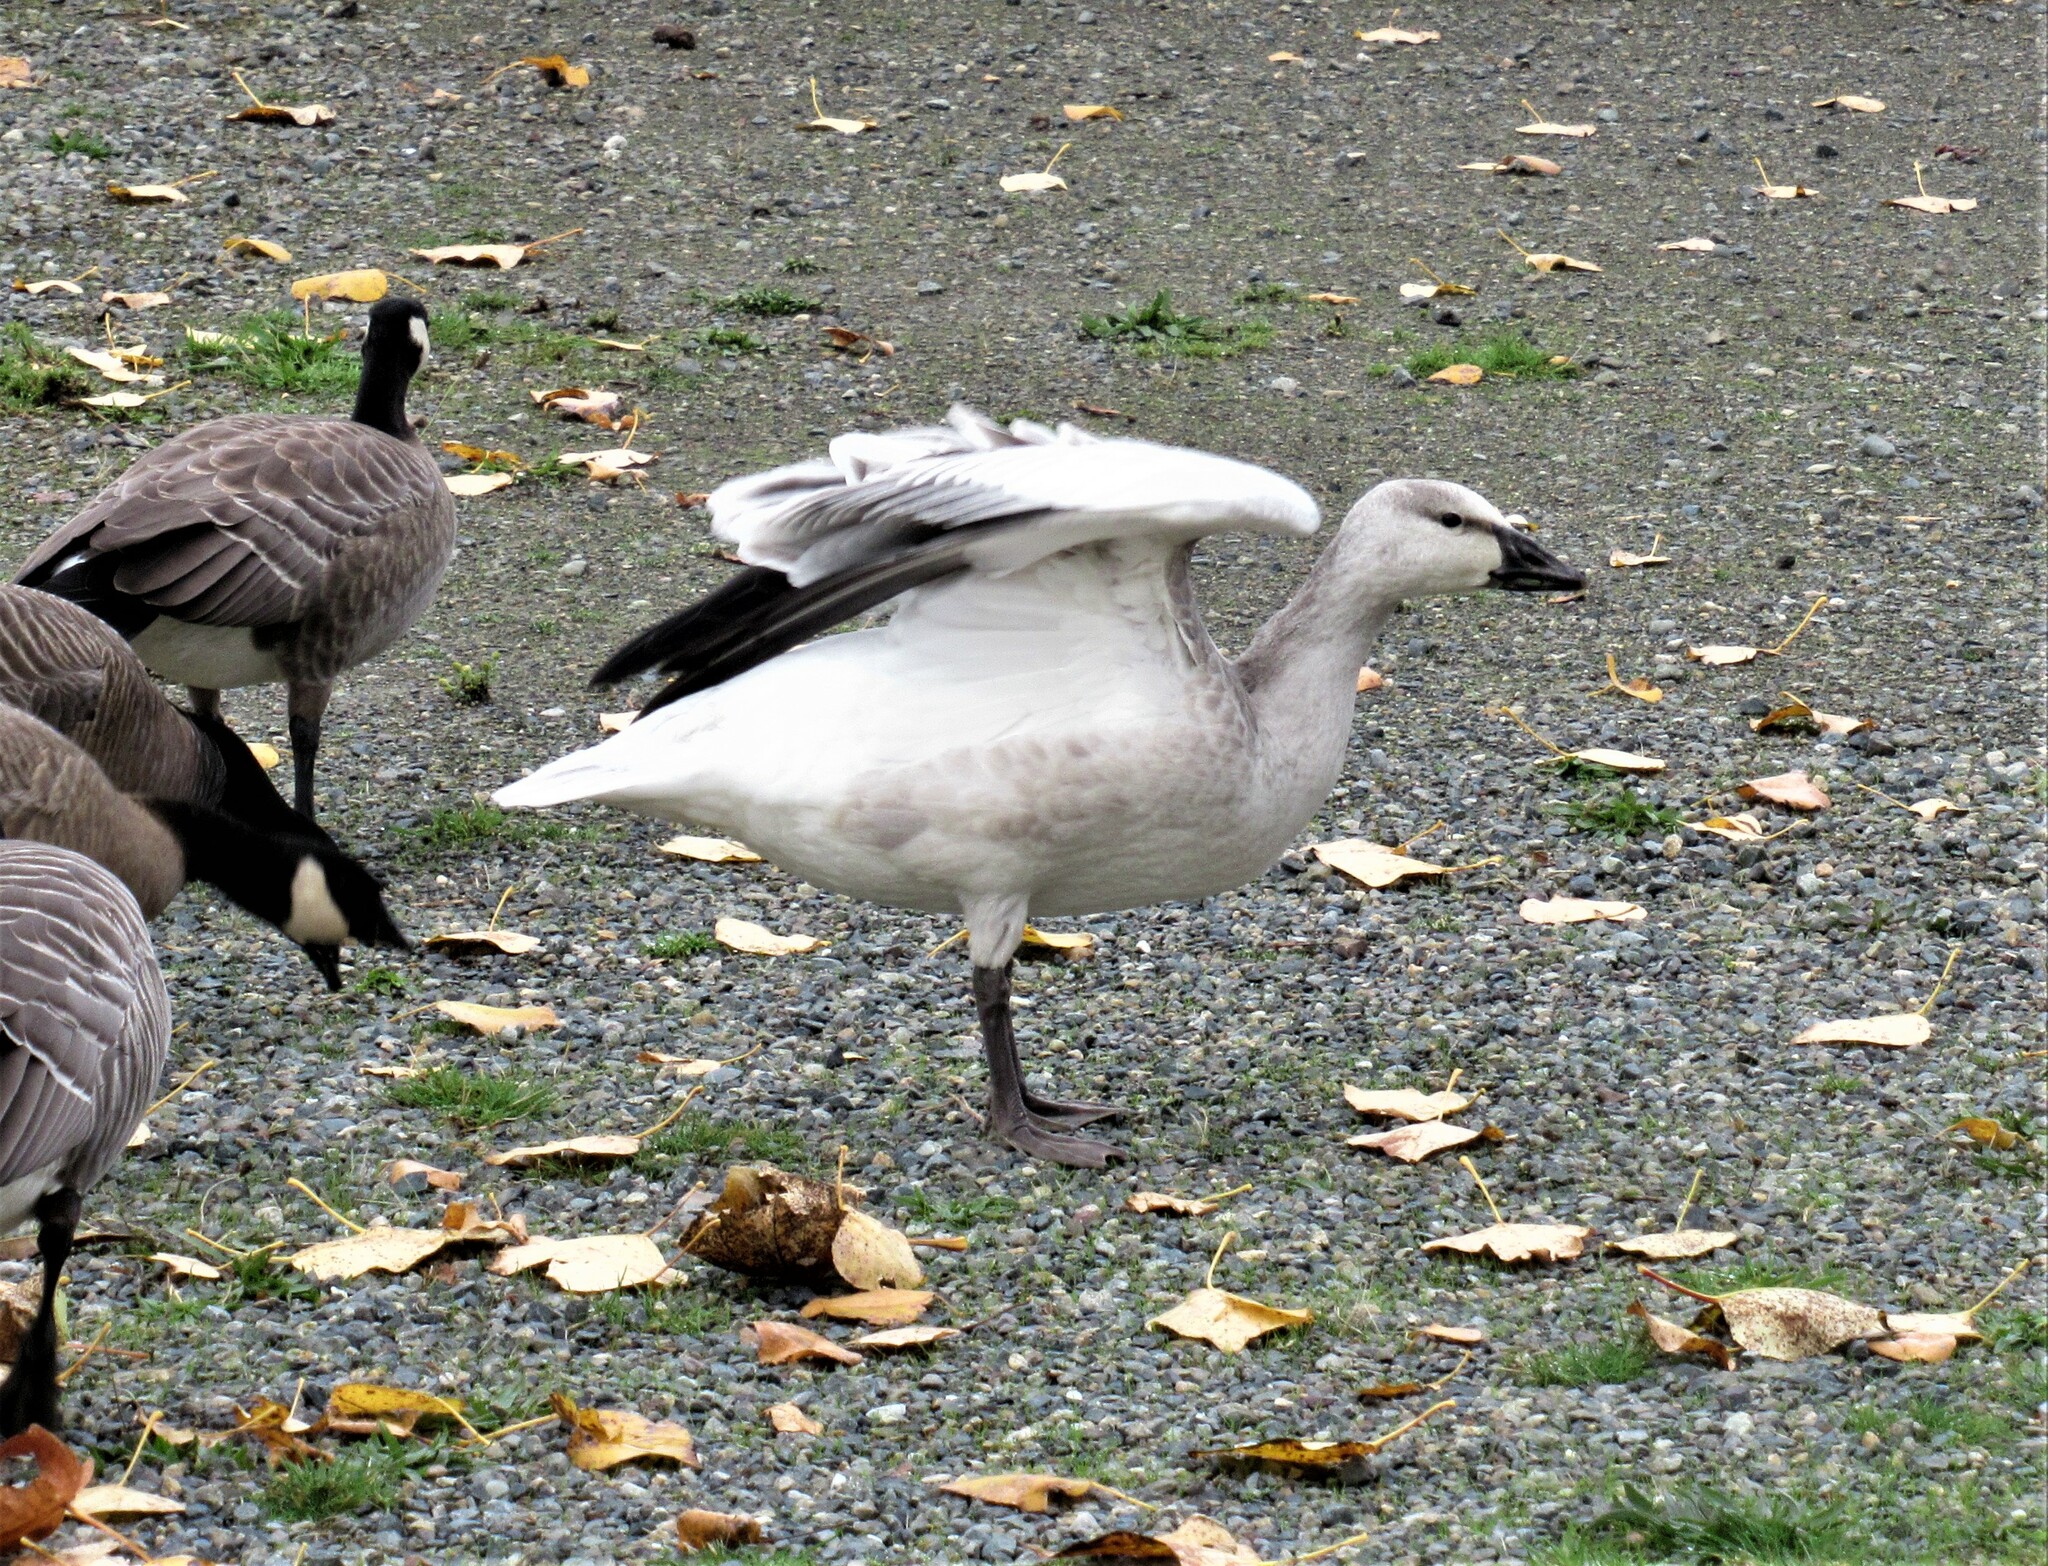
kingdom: Animalia
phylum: Chordata
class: Aves
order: Anseriformes
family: Anatidae
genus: Anser
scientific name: Anser caerulescens
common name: Snow goose
